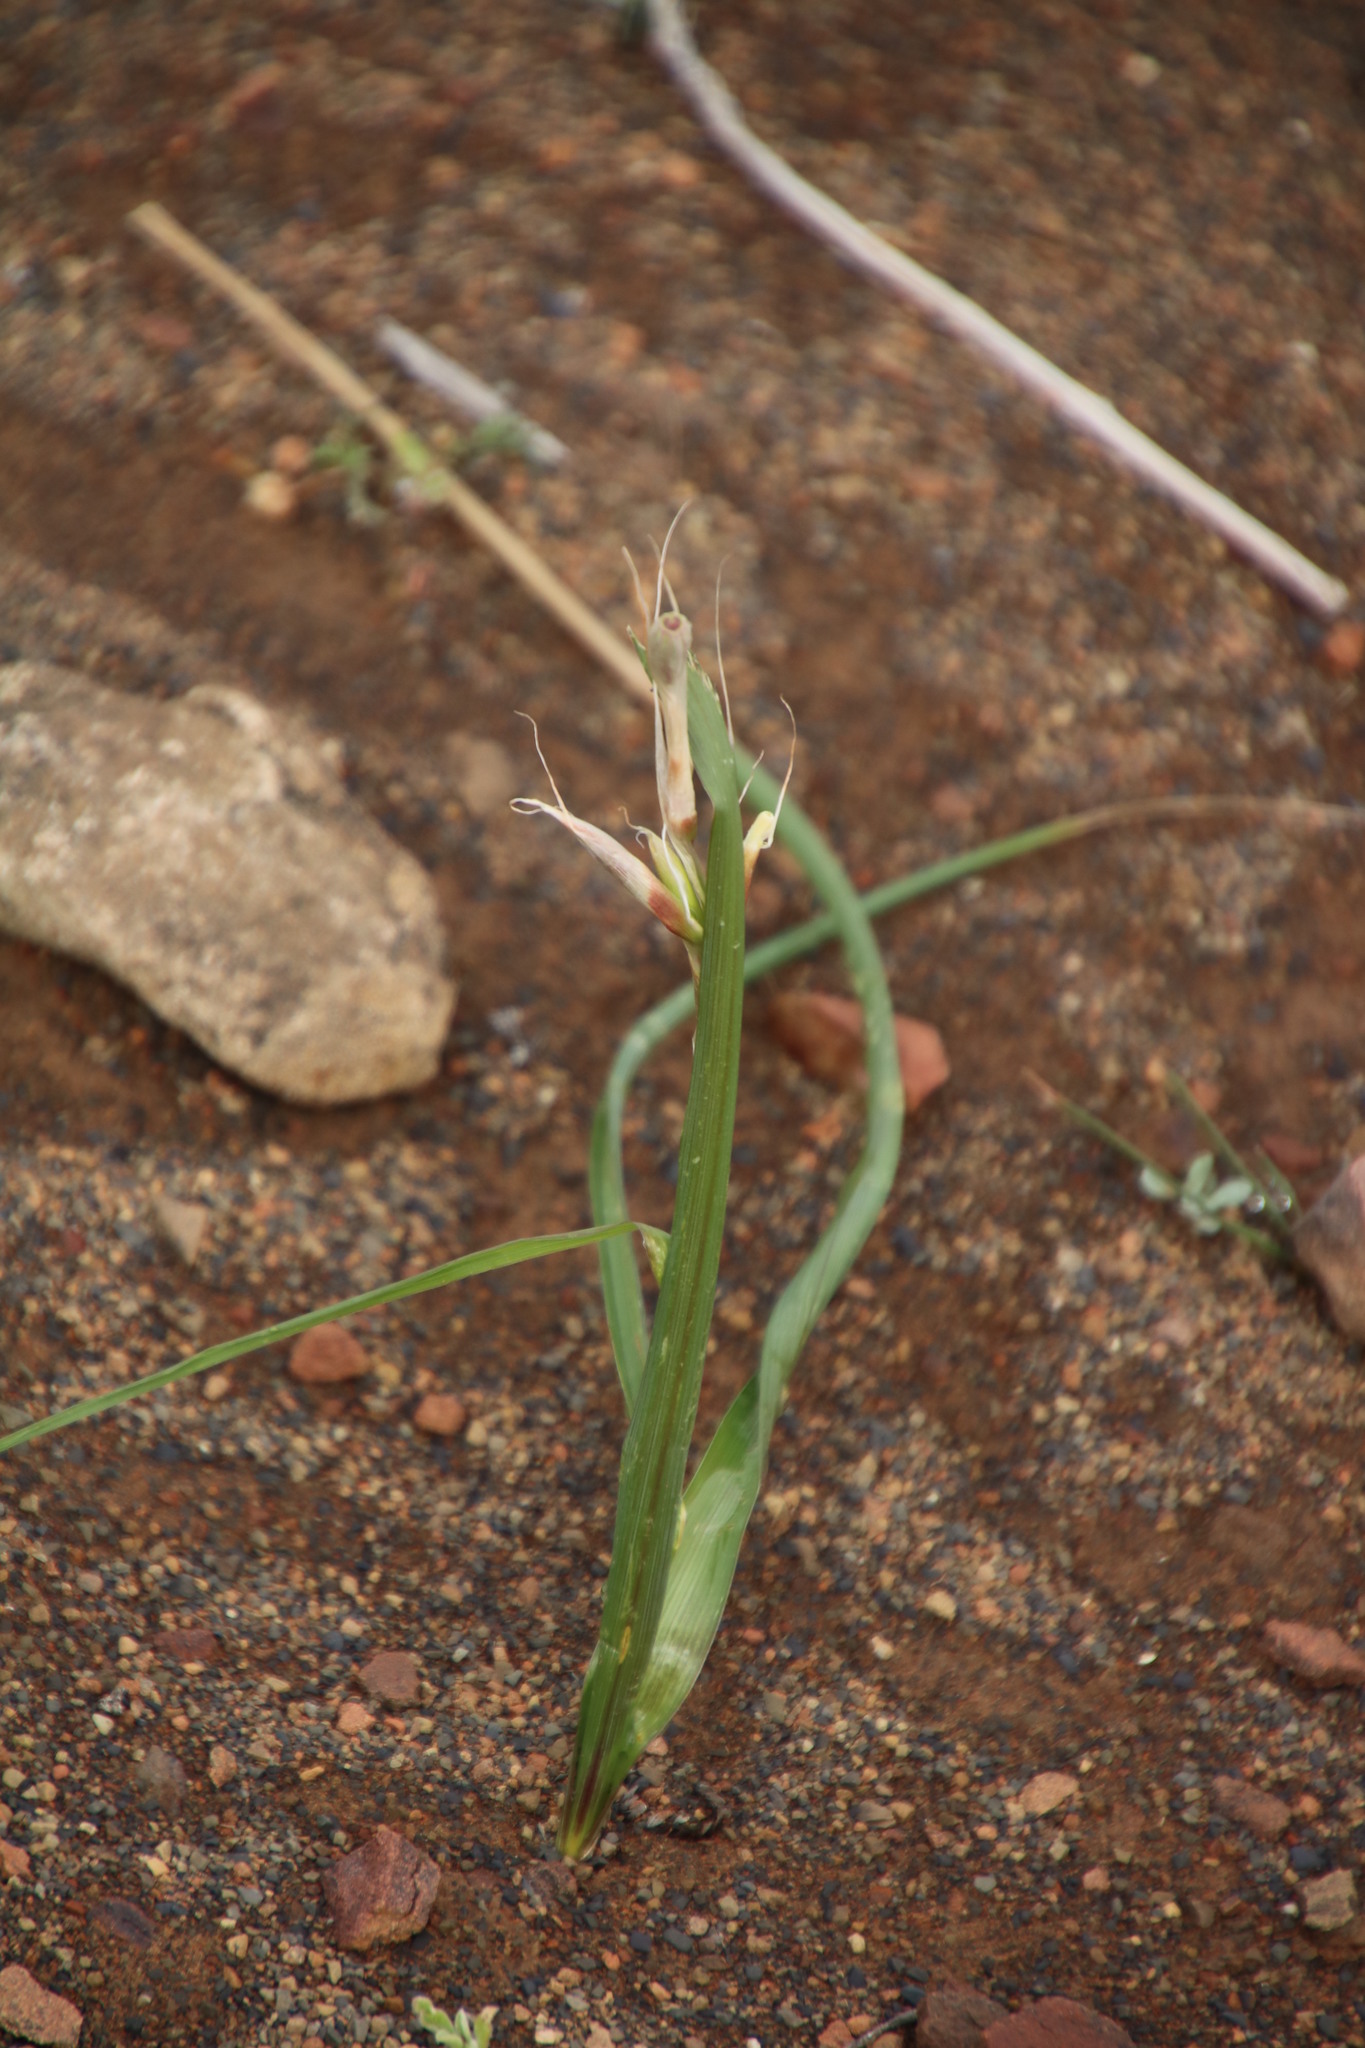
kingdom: Plantae
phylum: Tracheophyta
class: Liliopsida
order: Asparagales
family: Iridaceae
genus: Moraea
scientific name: Moraea polystachya
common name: Blue-tulip
